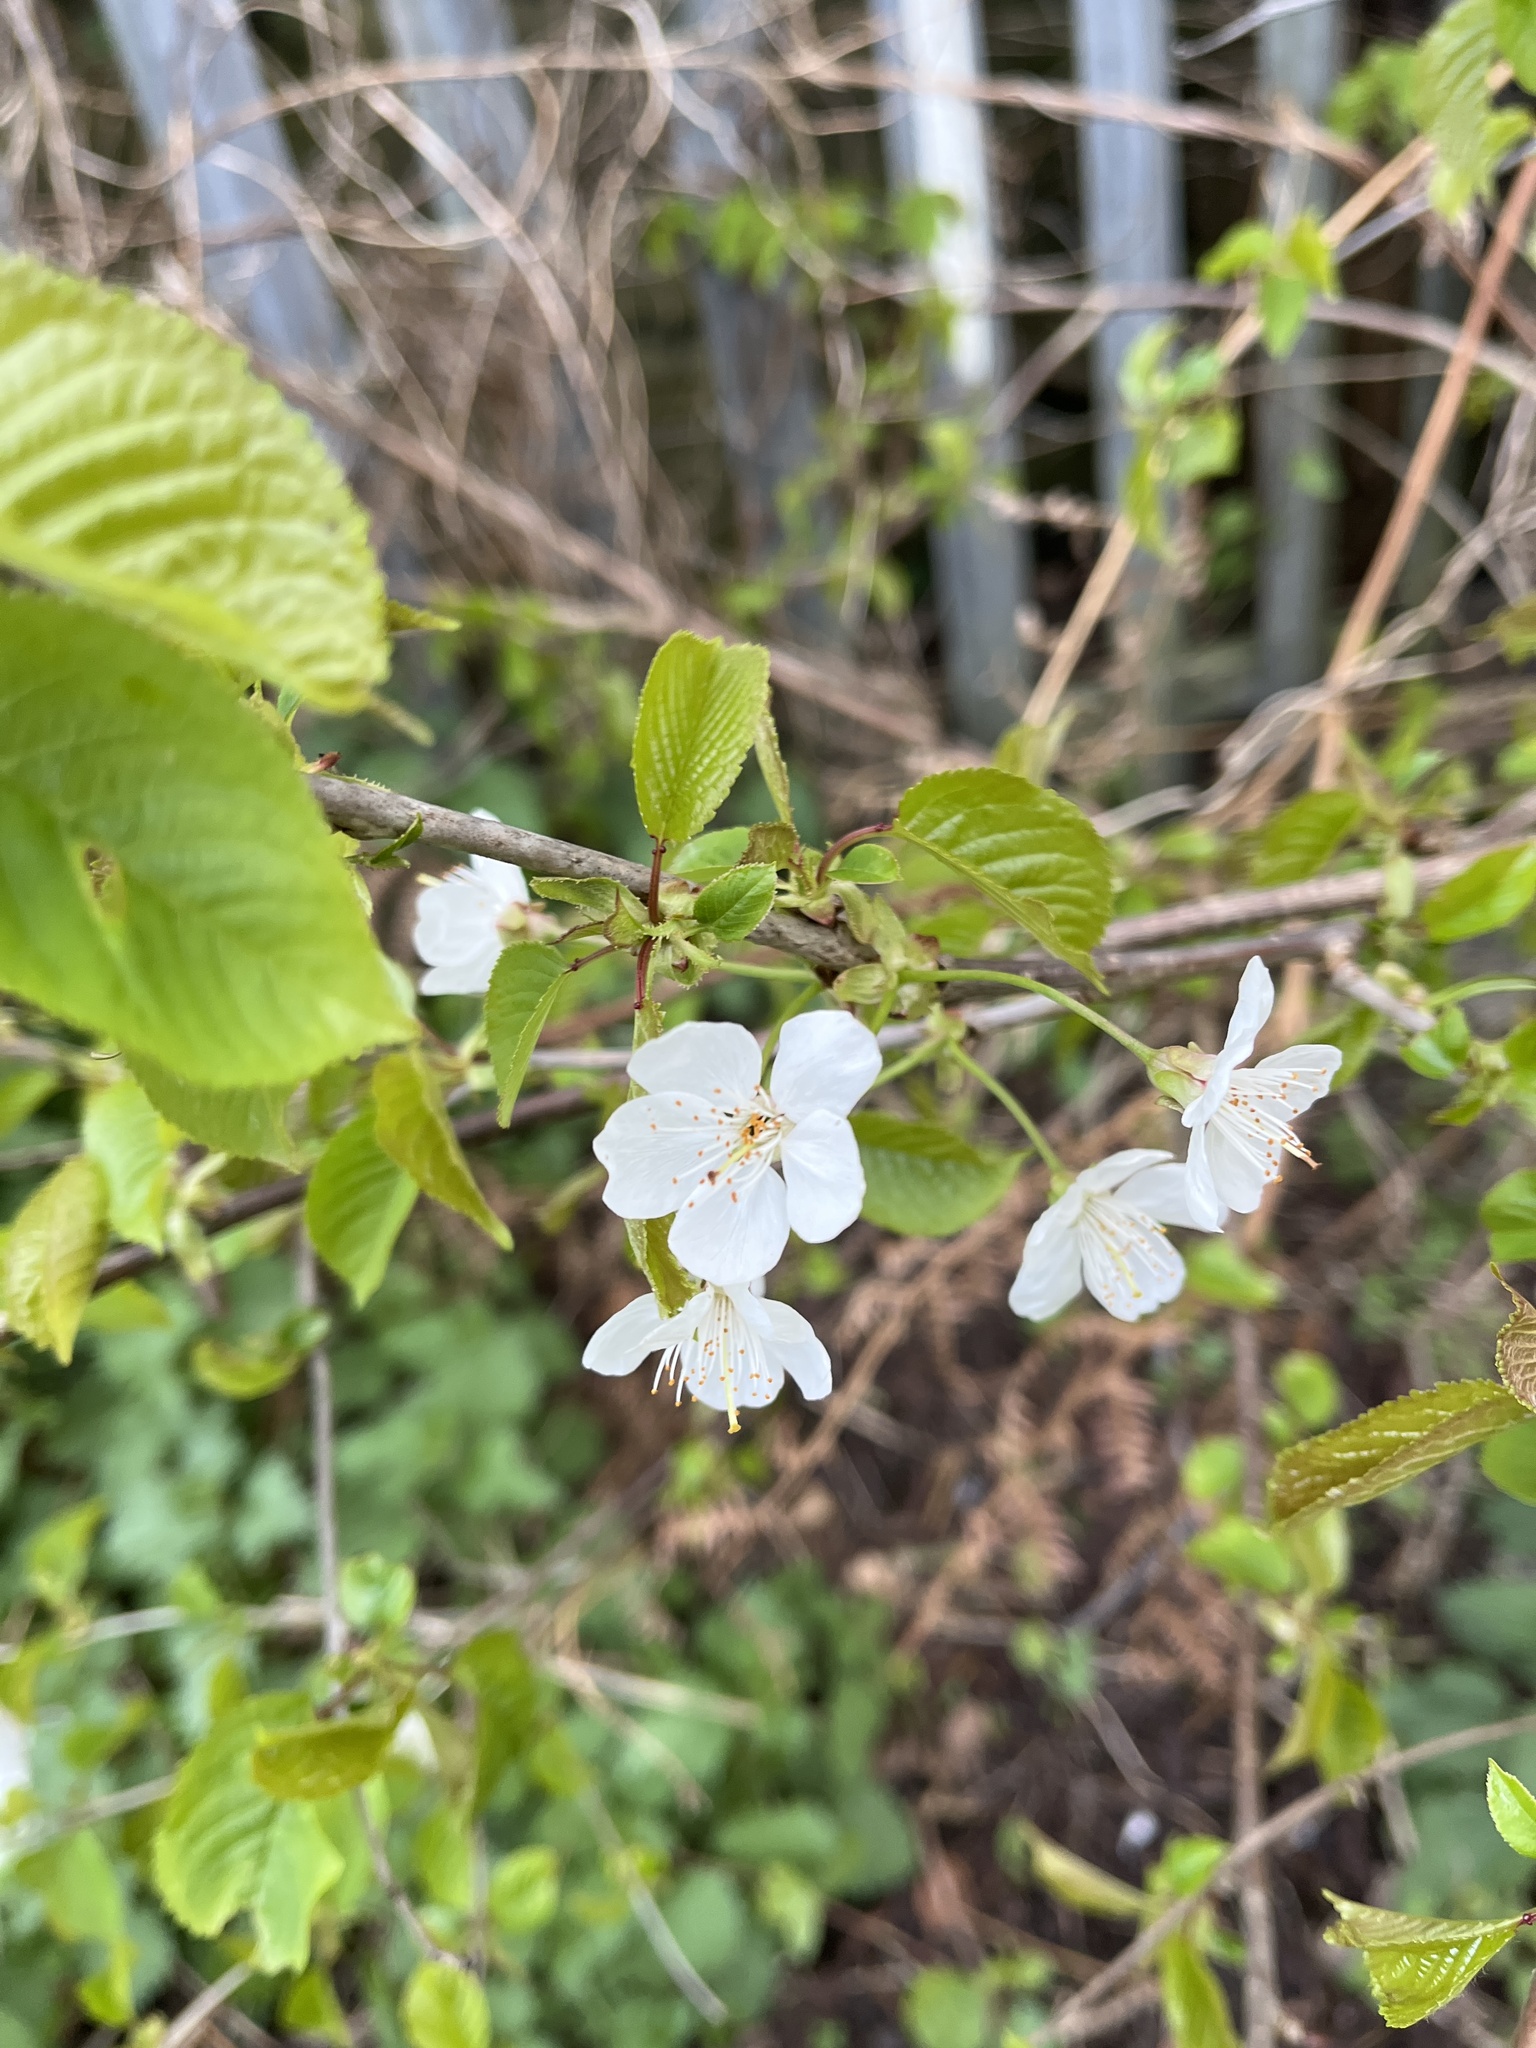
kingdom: Plantae
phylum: Tracheophyta
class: Magnoliopsida
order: Rosales
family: Rosaceae
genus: Prunus
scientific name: Prunus avium
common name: Sweet cherry
